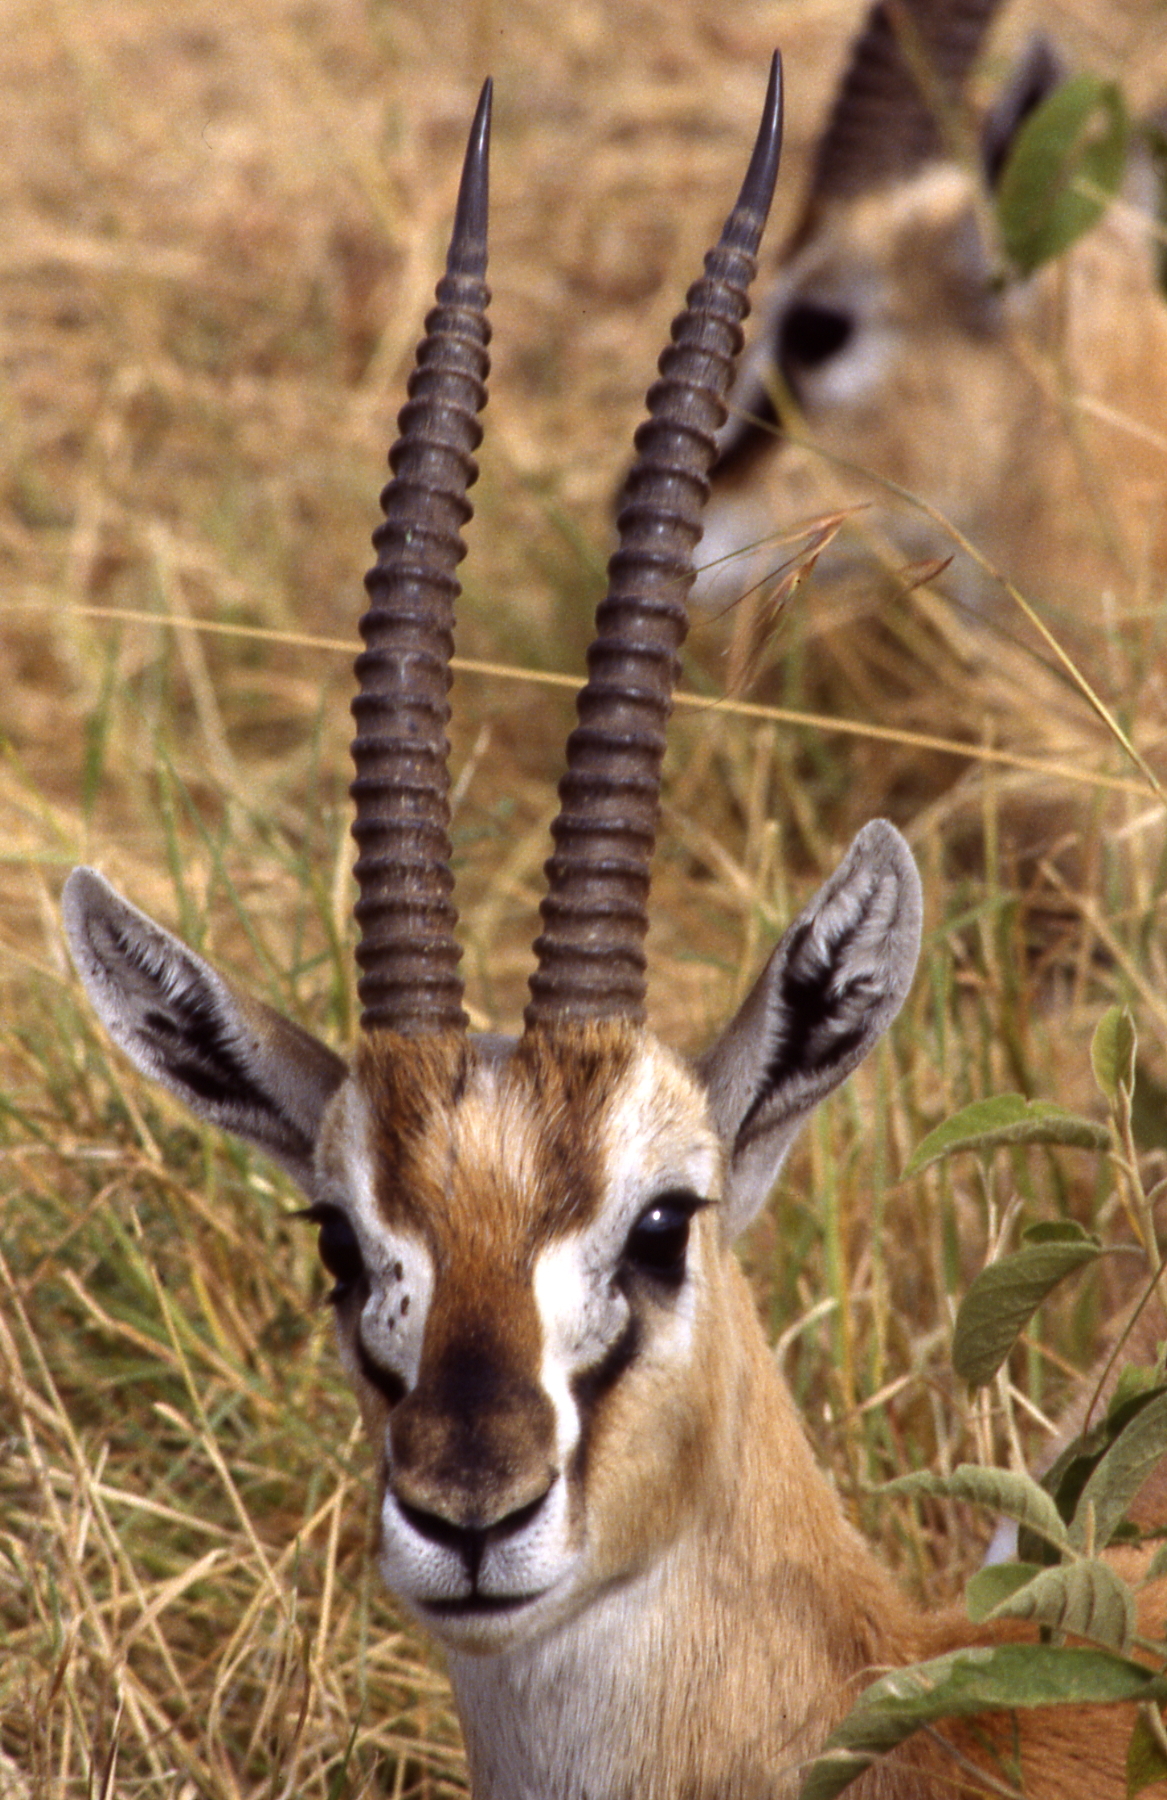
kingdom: Animalia
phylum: Chordata
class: Mammalia
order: Artiodactyla
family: Bovidae
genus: Eudorcas
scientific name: Eudorcas thomsonii
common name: Thomson's gazelle
